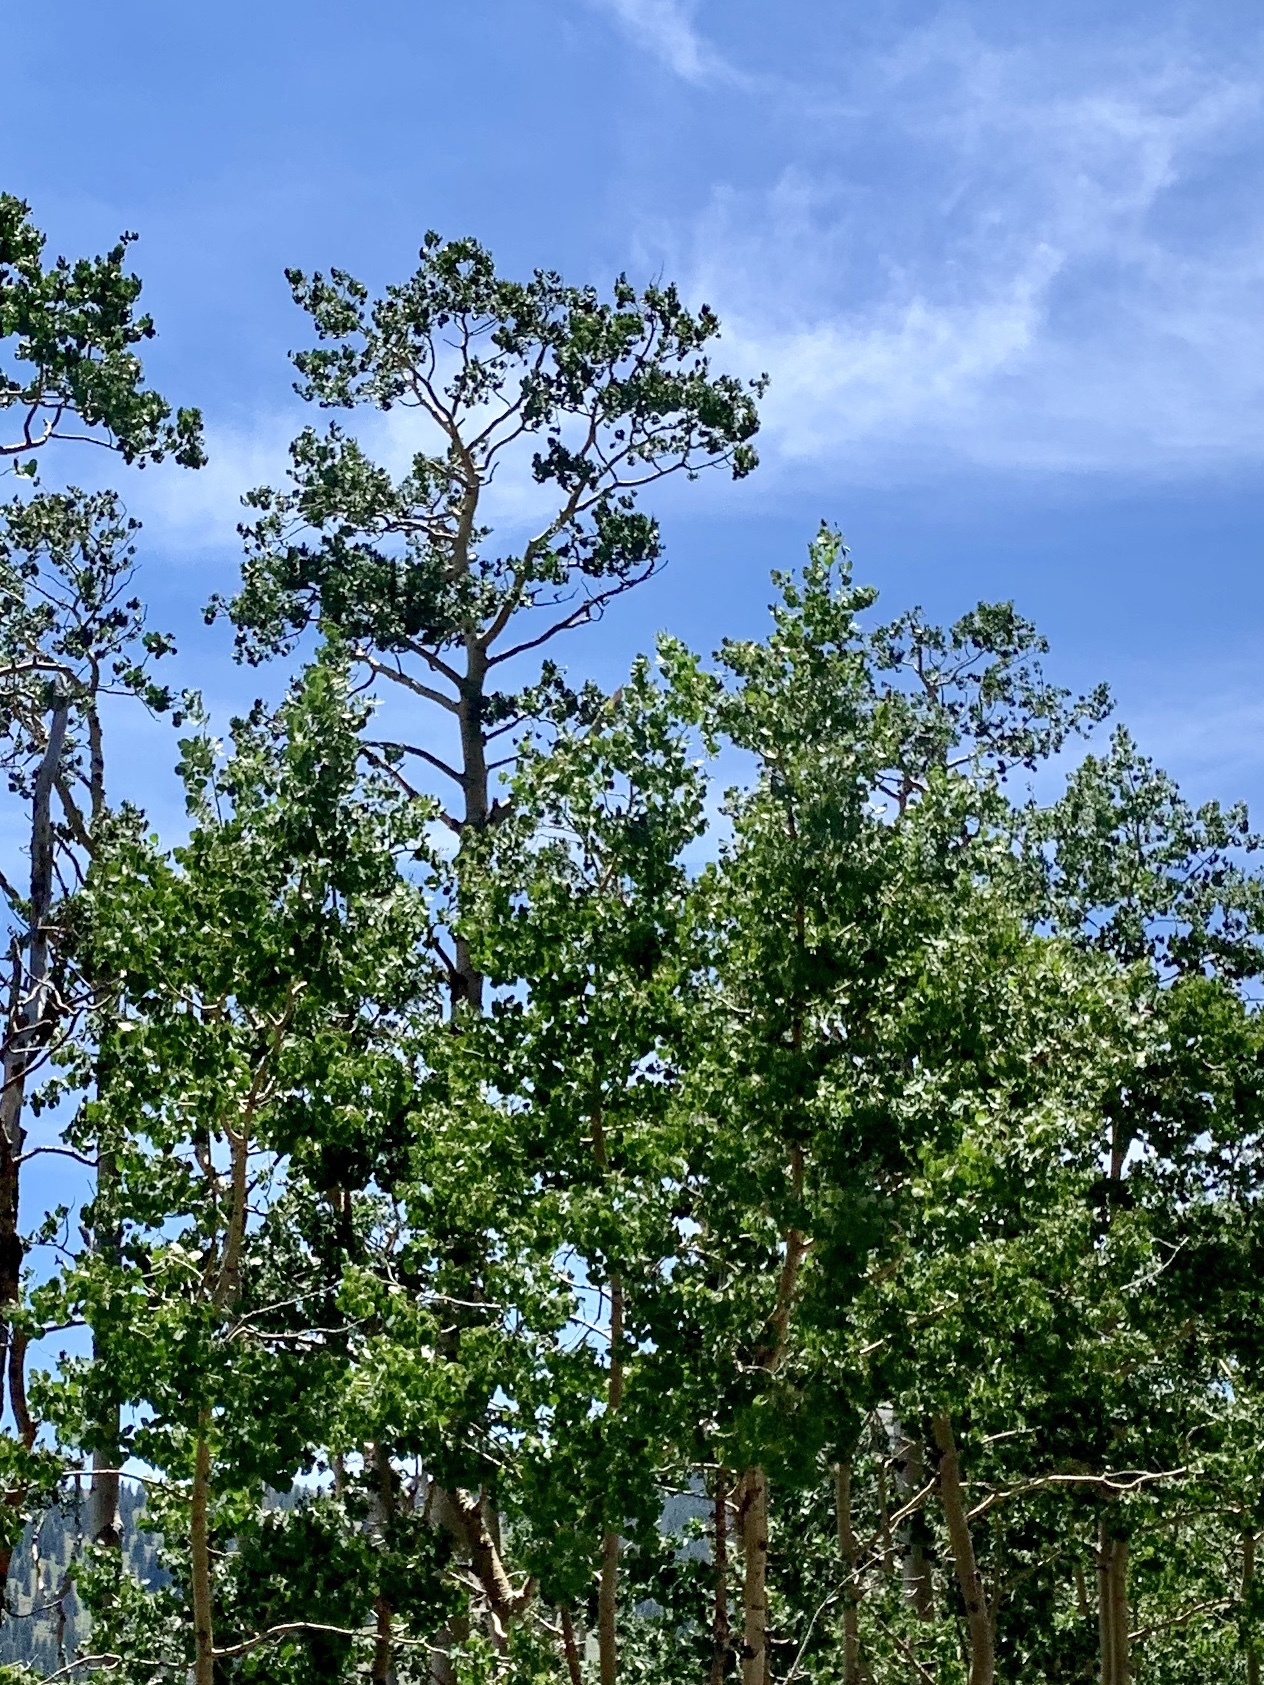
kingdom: Plantae
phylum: Tracheophyta
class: Magnoliopsida
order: Malpighiales
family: Salicaceae
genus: Populus
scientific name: Populus tremuloides
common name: Quaking aspen
